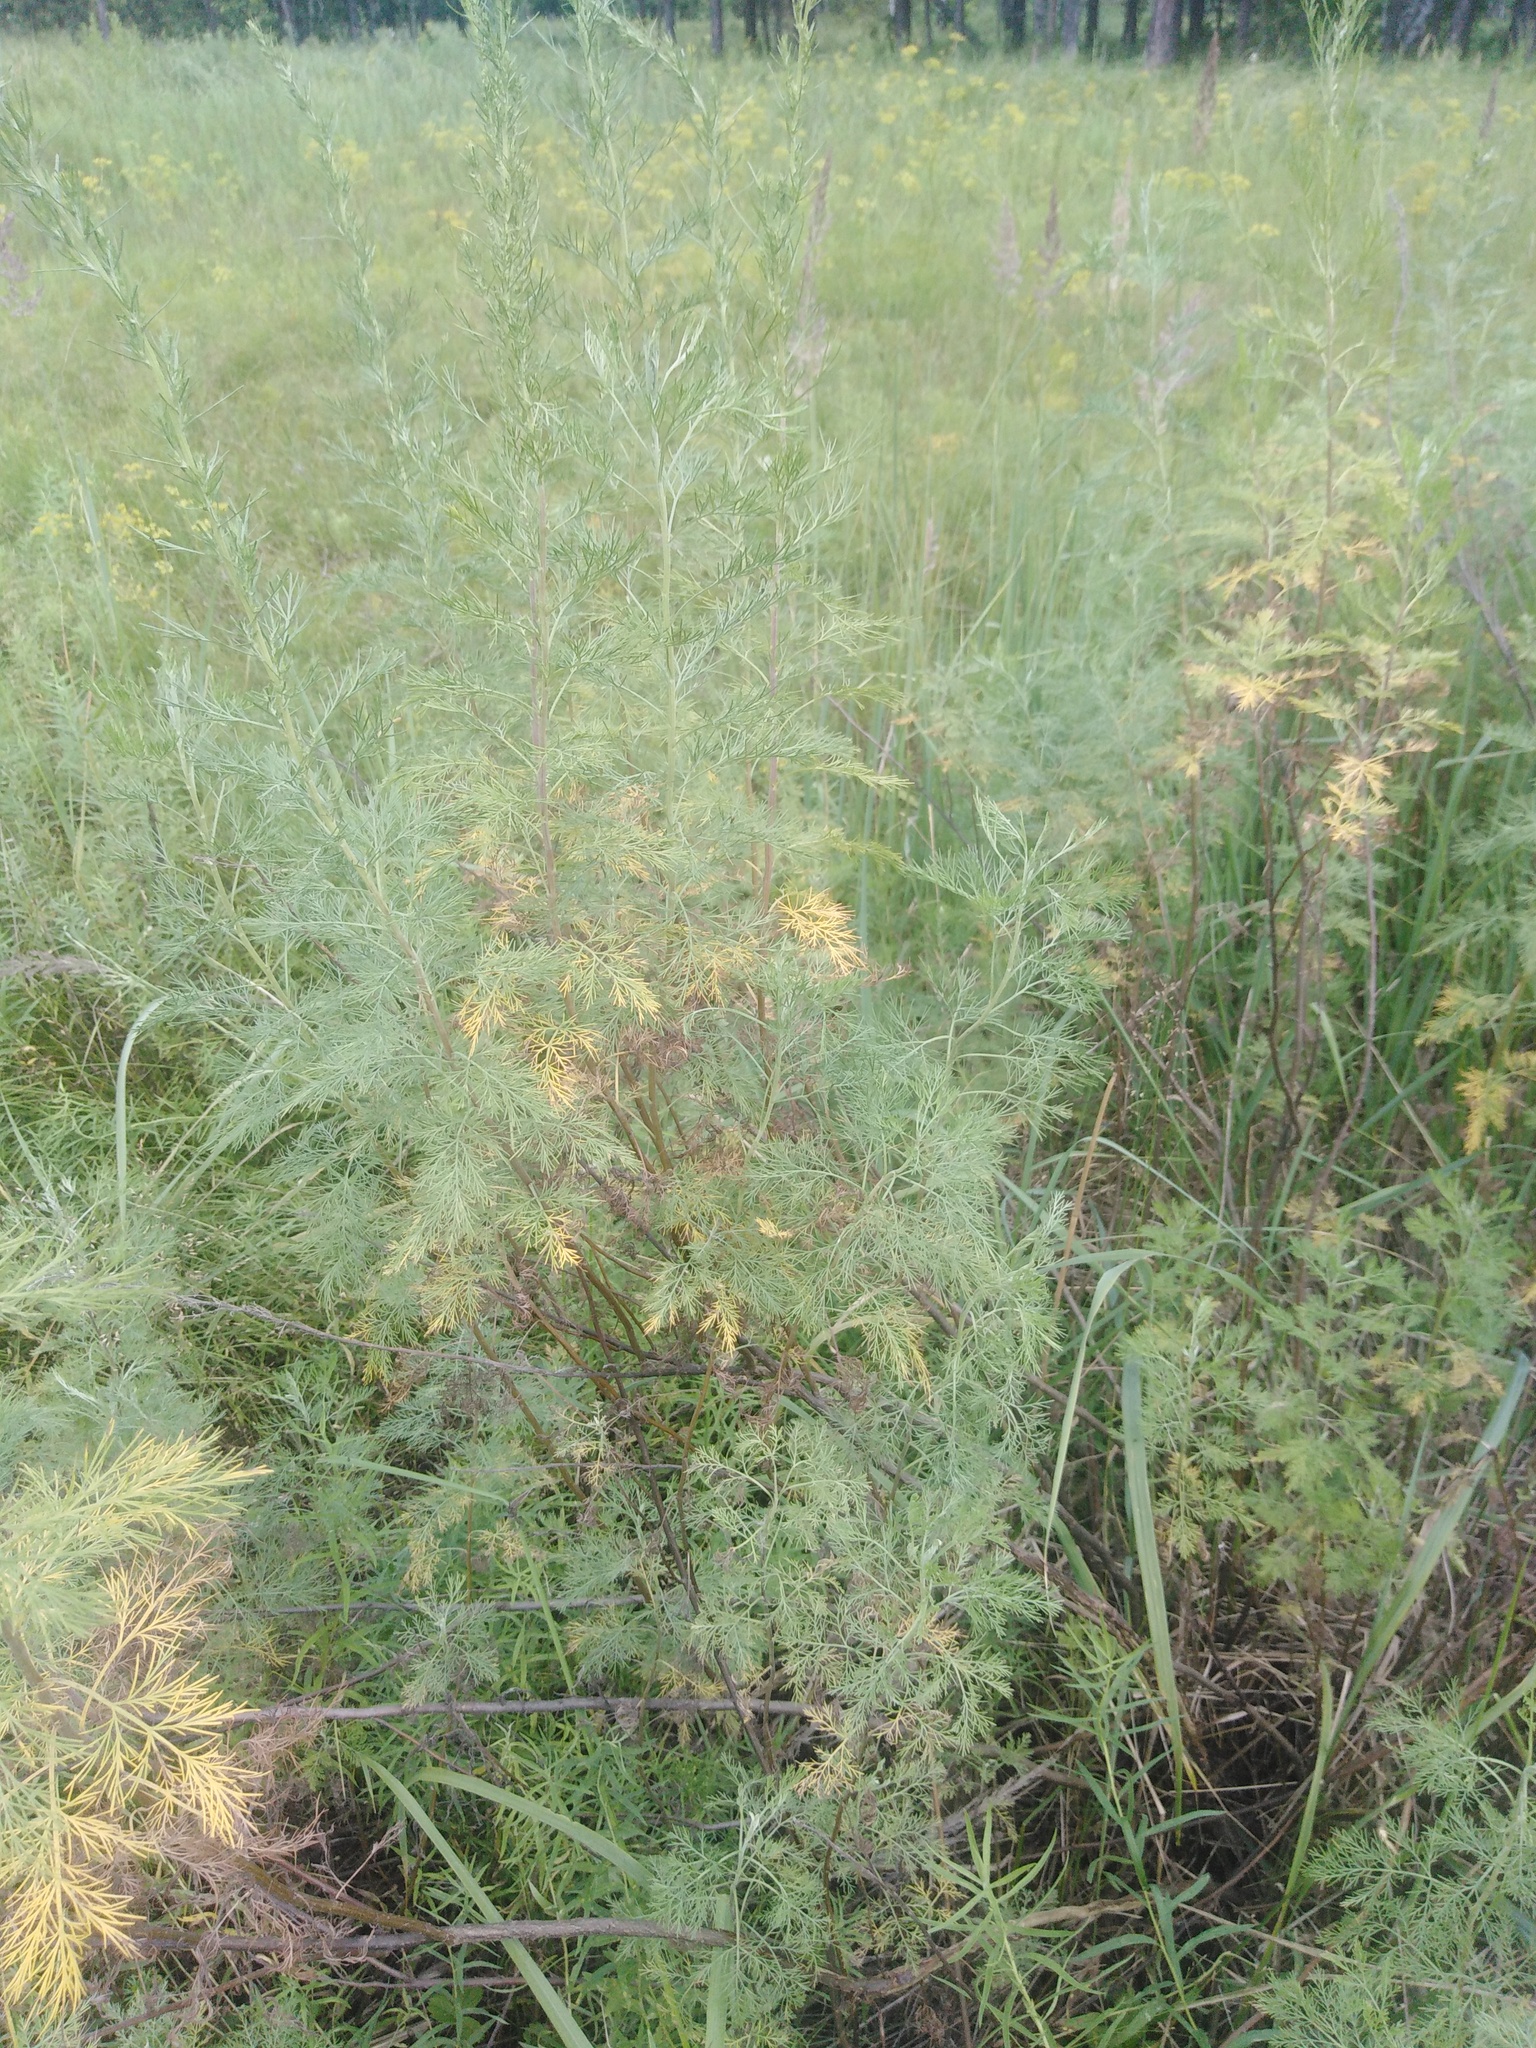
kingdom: Plantae
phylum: Tracheophyta
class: Magnoliopsida
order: Asterales
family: Asteraceae
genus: Artemisia
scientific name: Artemisia abrotanum
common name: Southernwood
